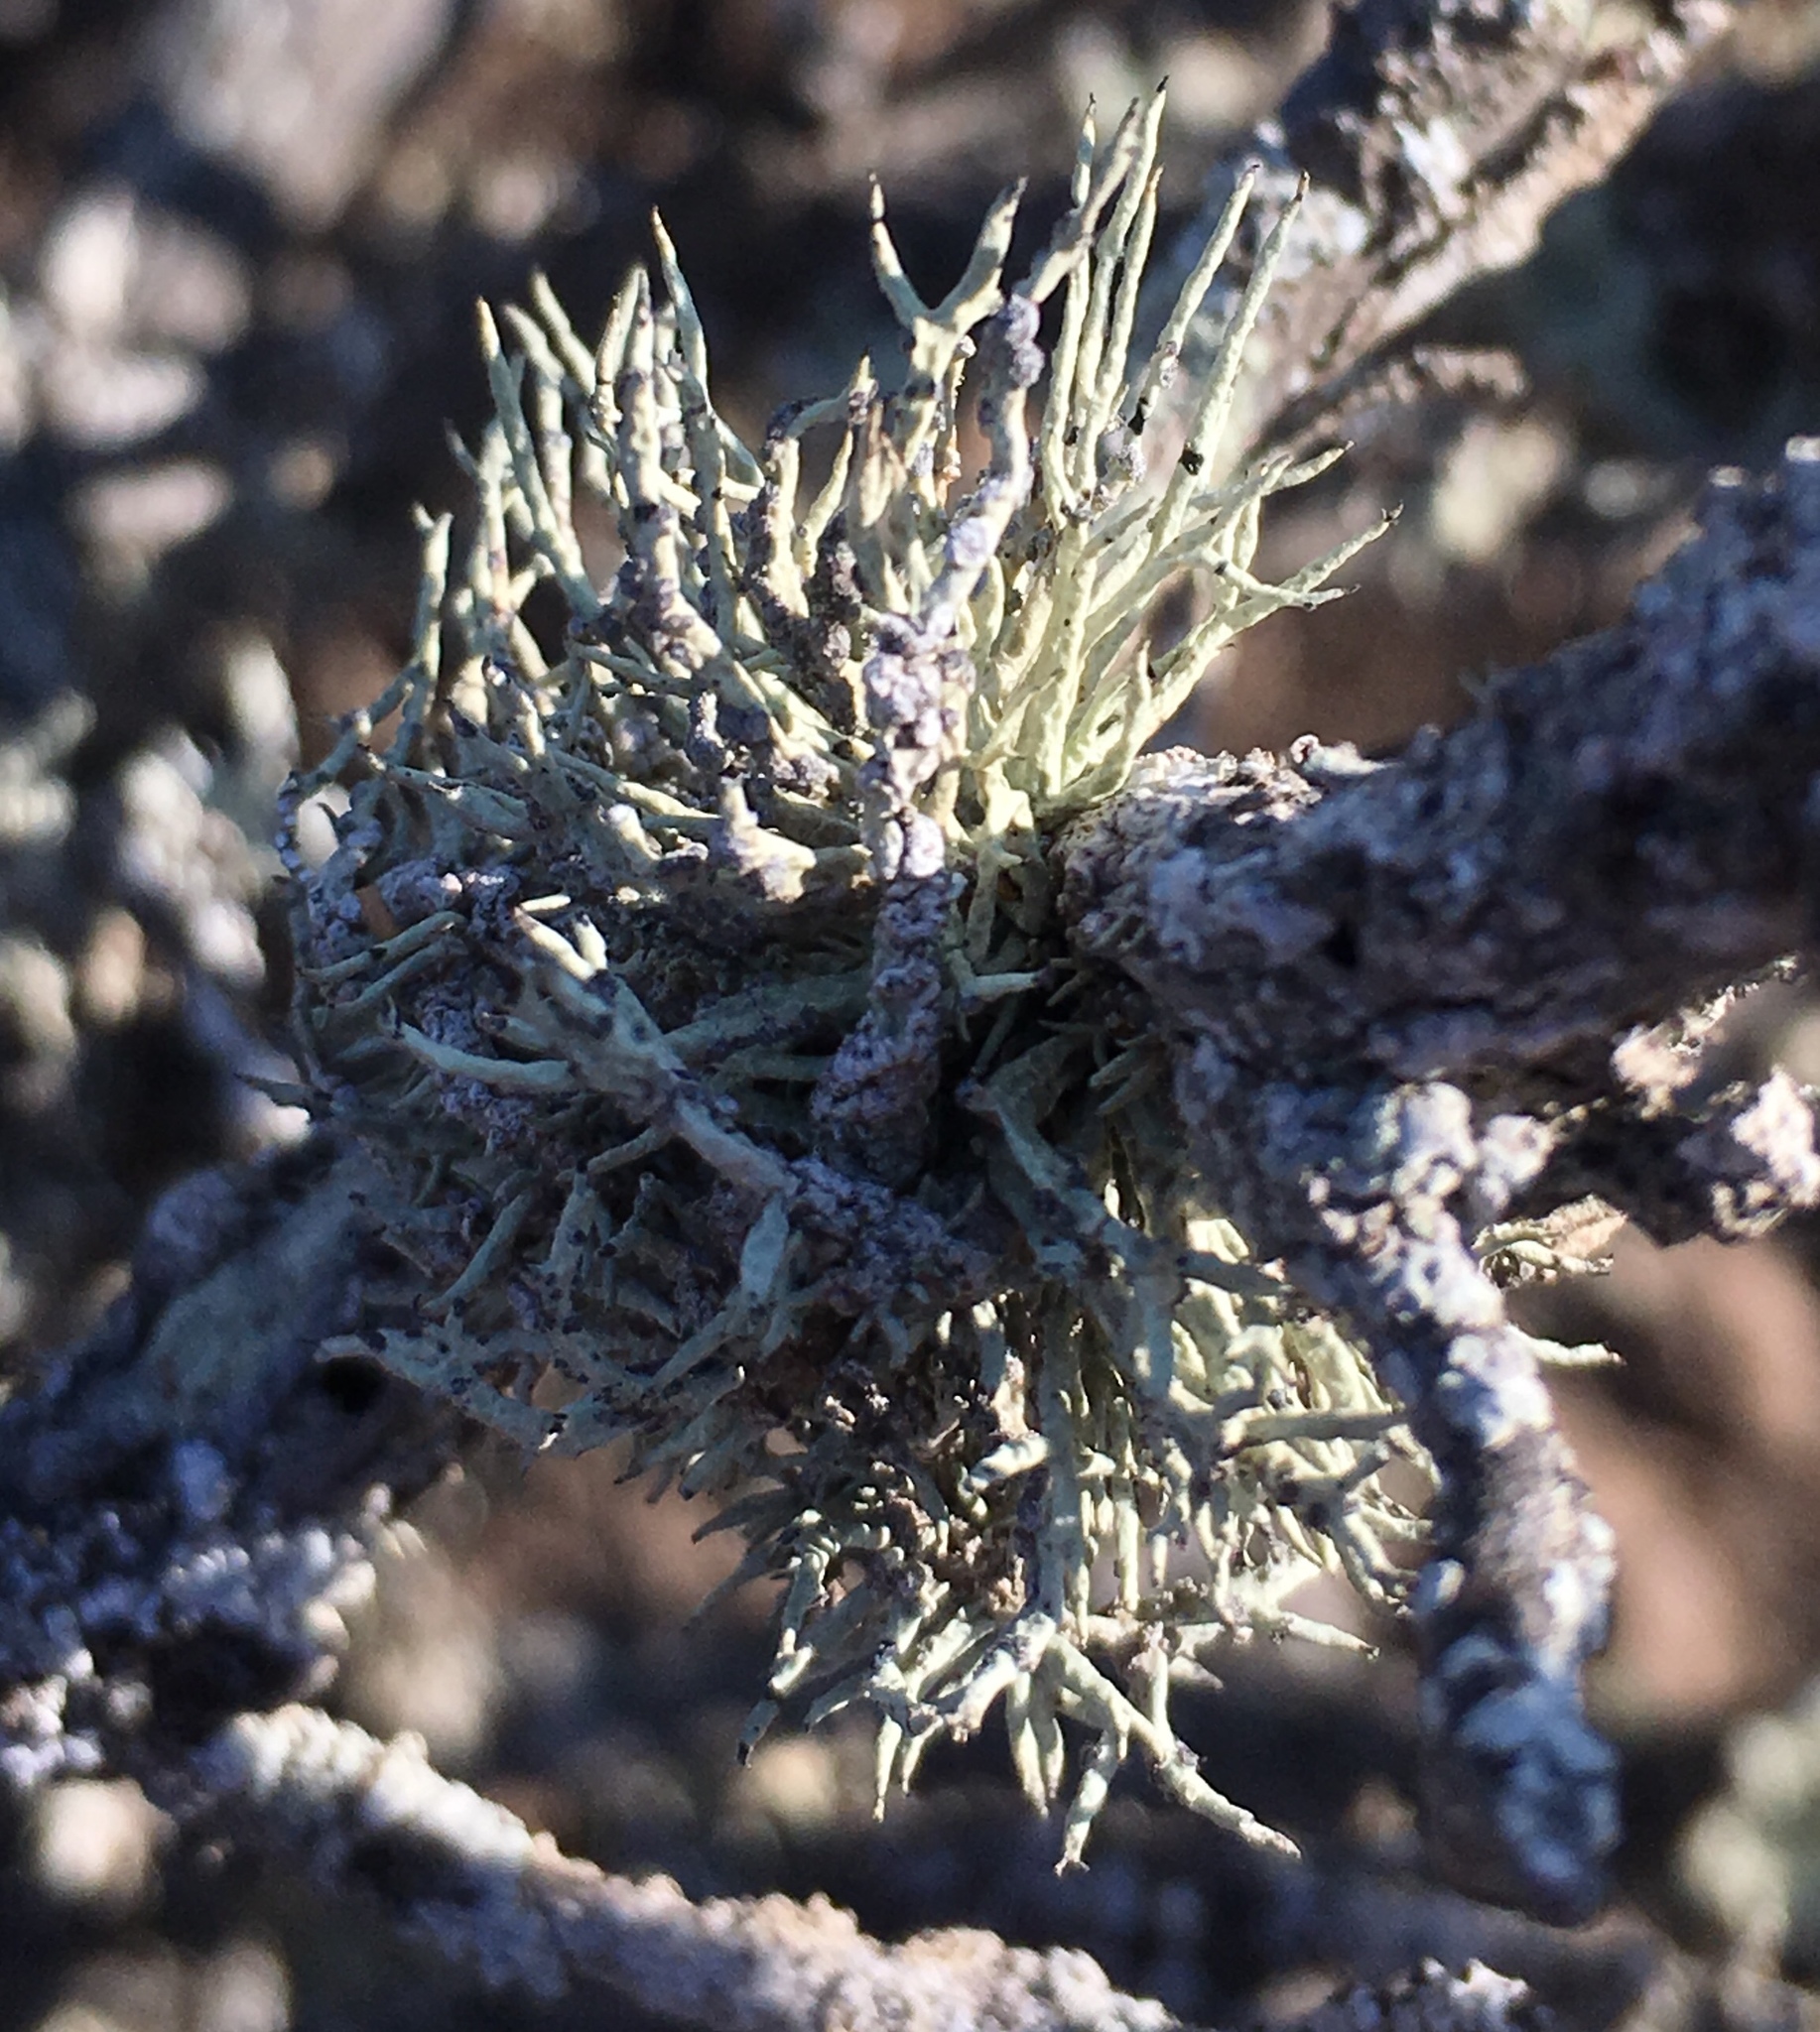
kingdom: Fungi
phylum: Ascomycota
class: Lecanoromycetes
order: Lecanorales
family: Ramalinaceae
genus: Niebla
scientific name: Niebla cephalota
